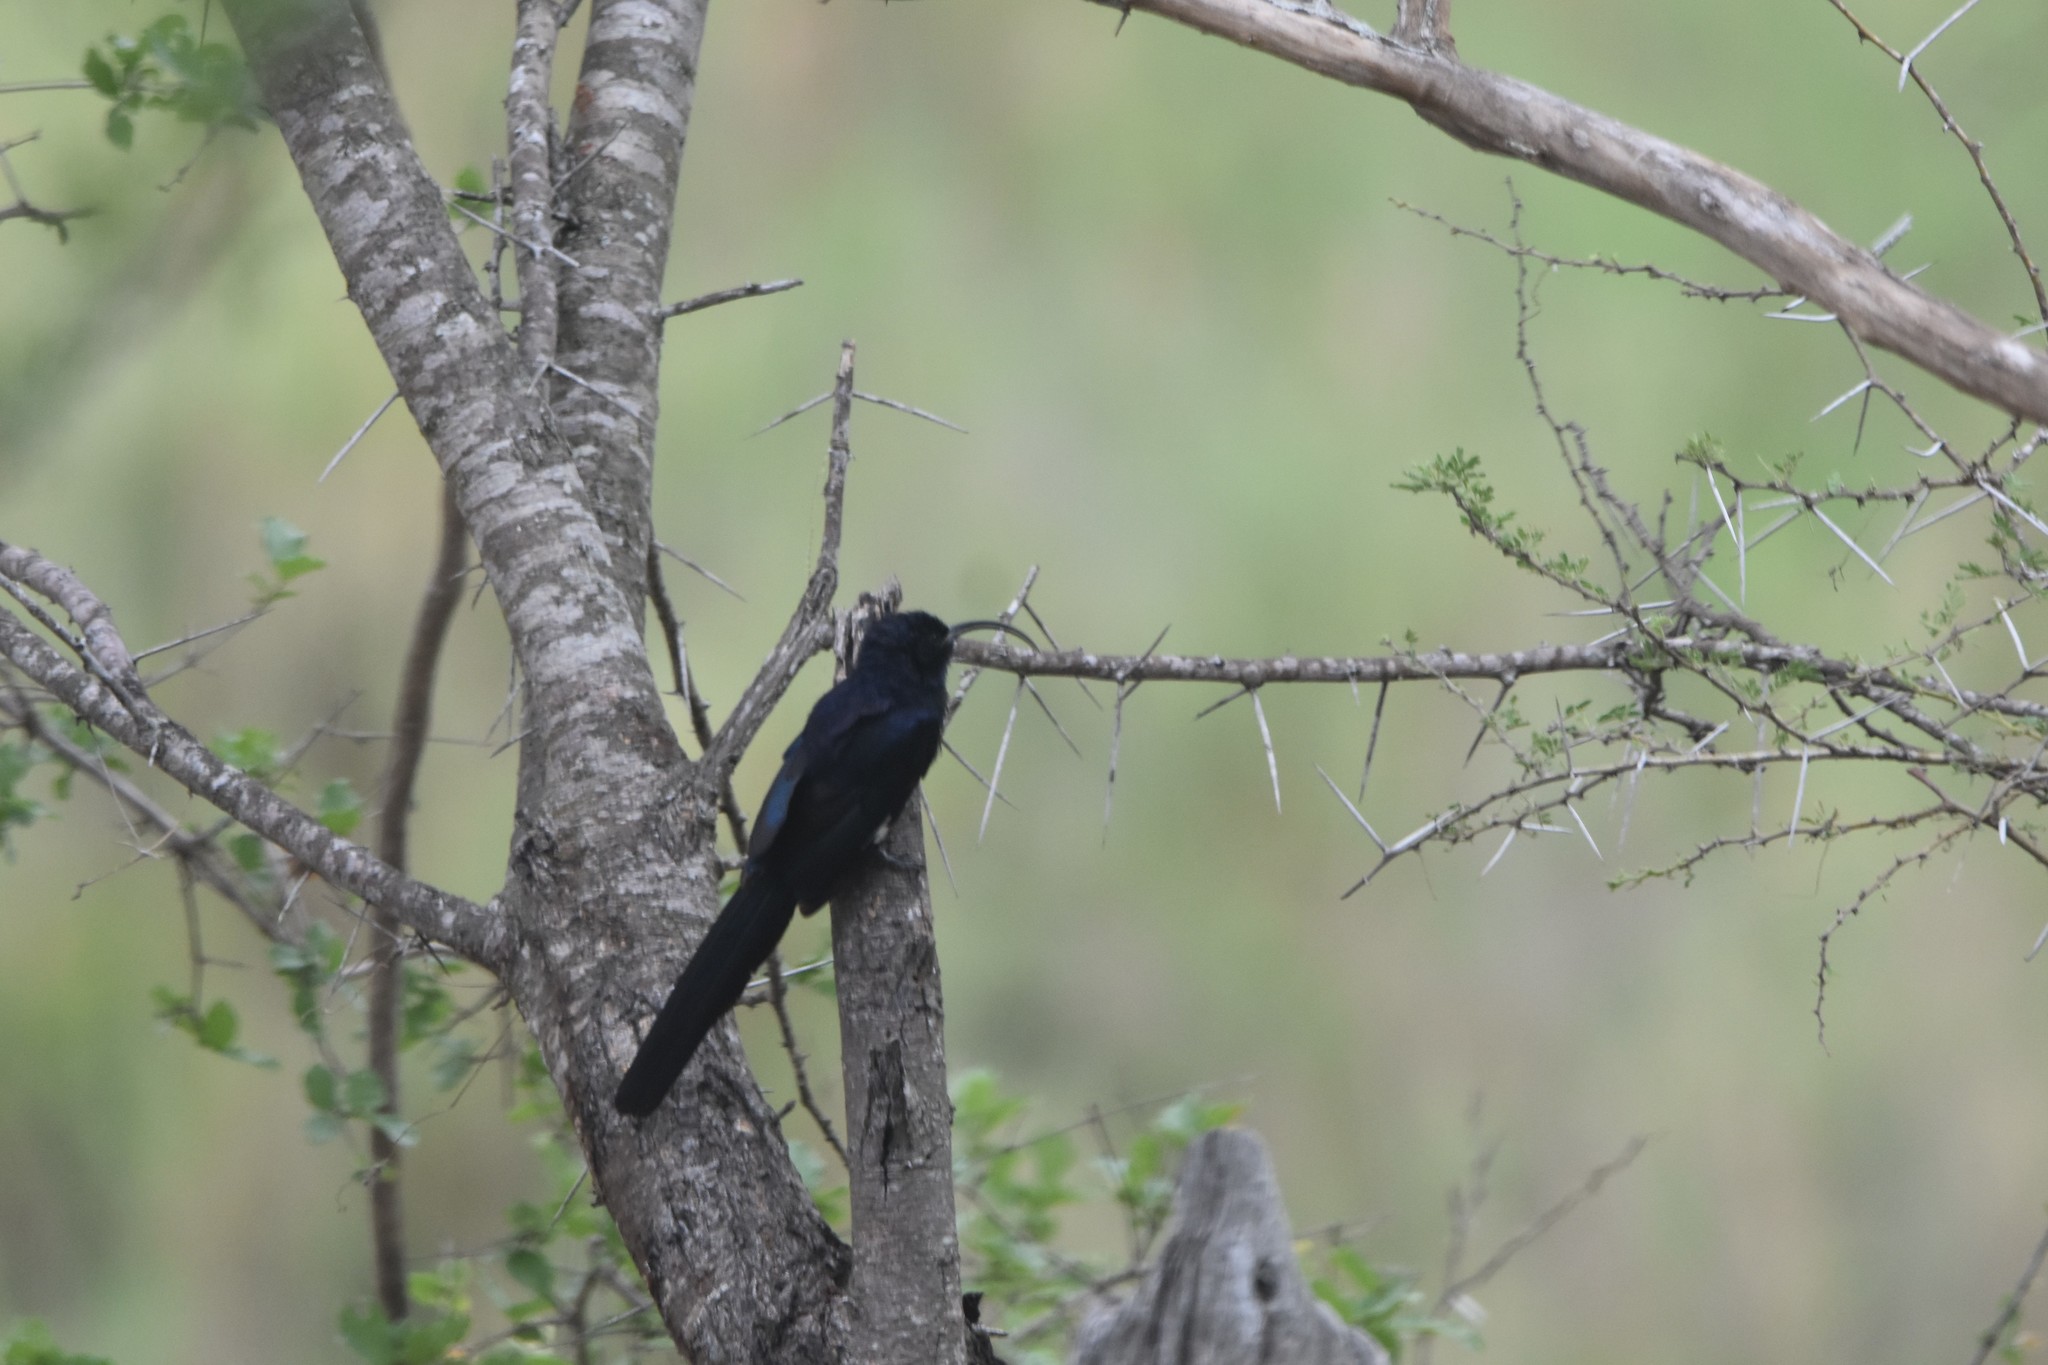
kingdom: Animalia
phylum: Chordata
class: Aves
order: Bucerotiformes
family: Phoeniculidae
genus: Rhinopomastus
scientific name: Rhinopomastus cyanomelas
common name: Common scimitarbill
